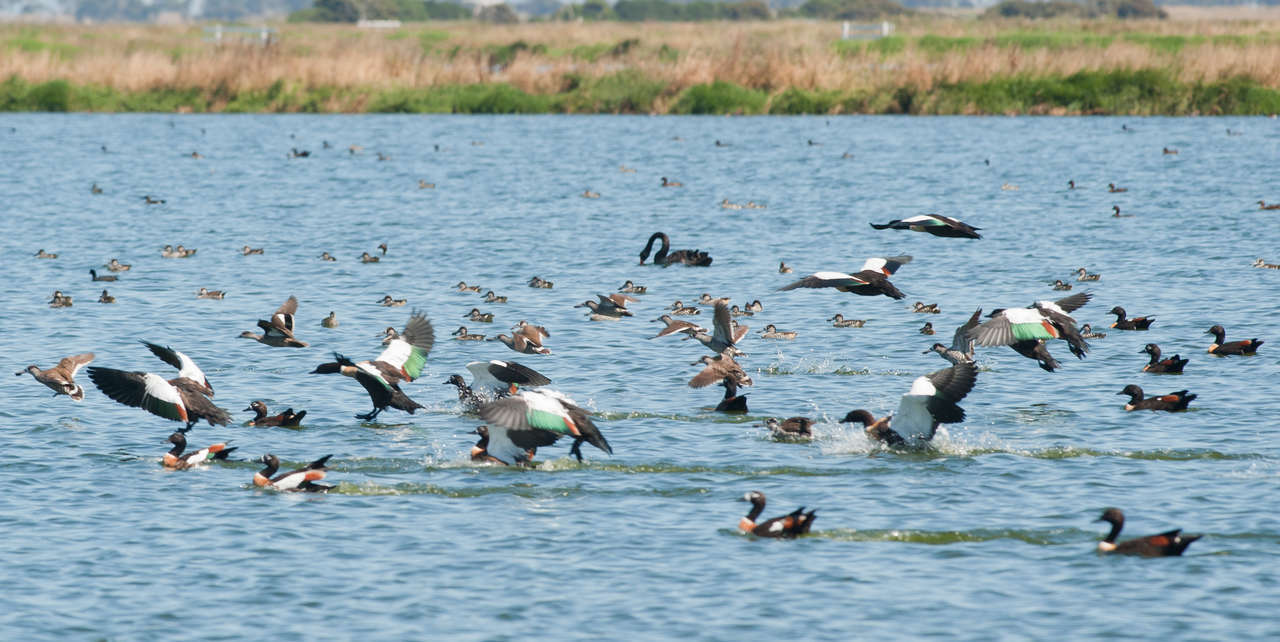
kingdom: Animalia
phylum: Chordata
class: Aves
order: Anseriformes
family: Anatidae
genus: Malacorhynchus
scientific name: Malacorhynchus membranaceus
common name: Pink-eared duck
